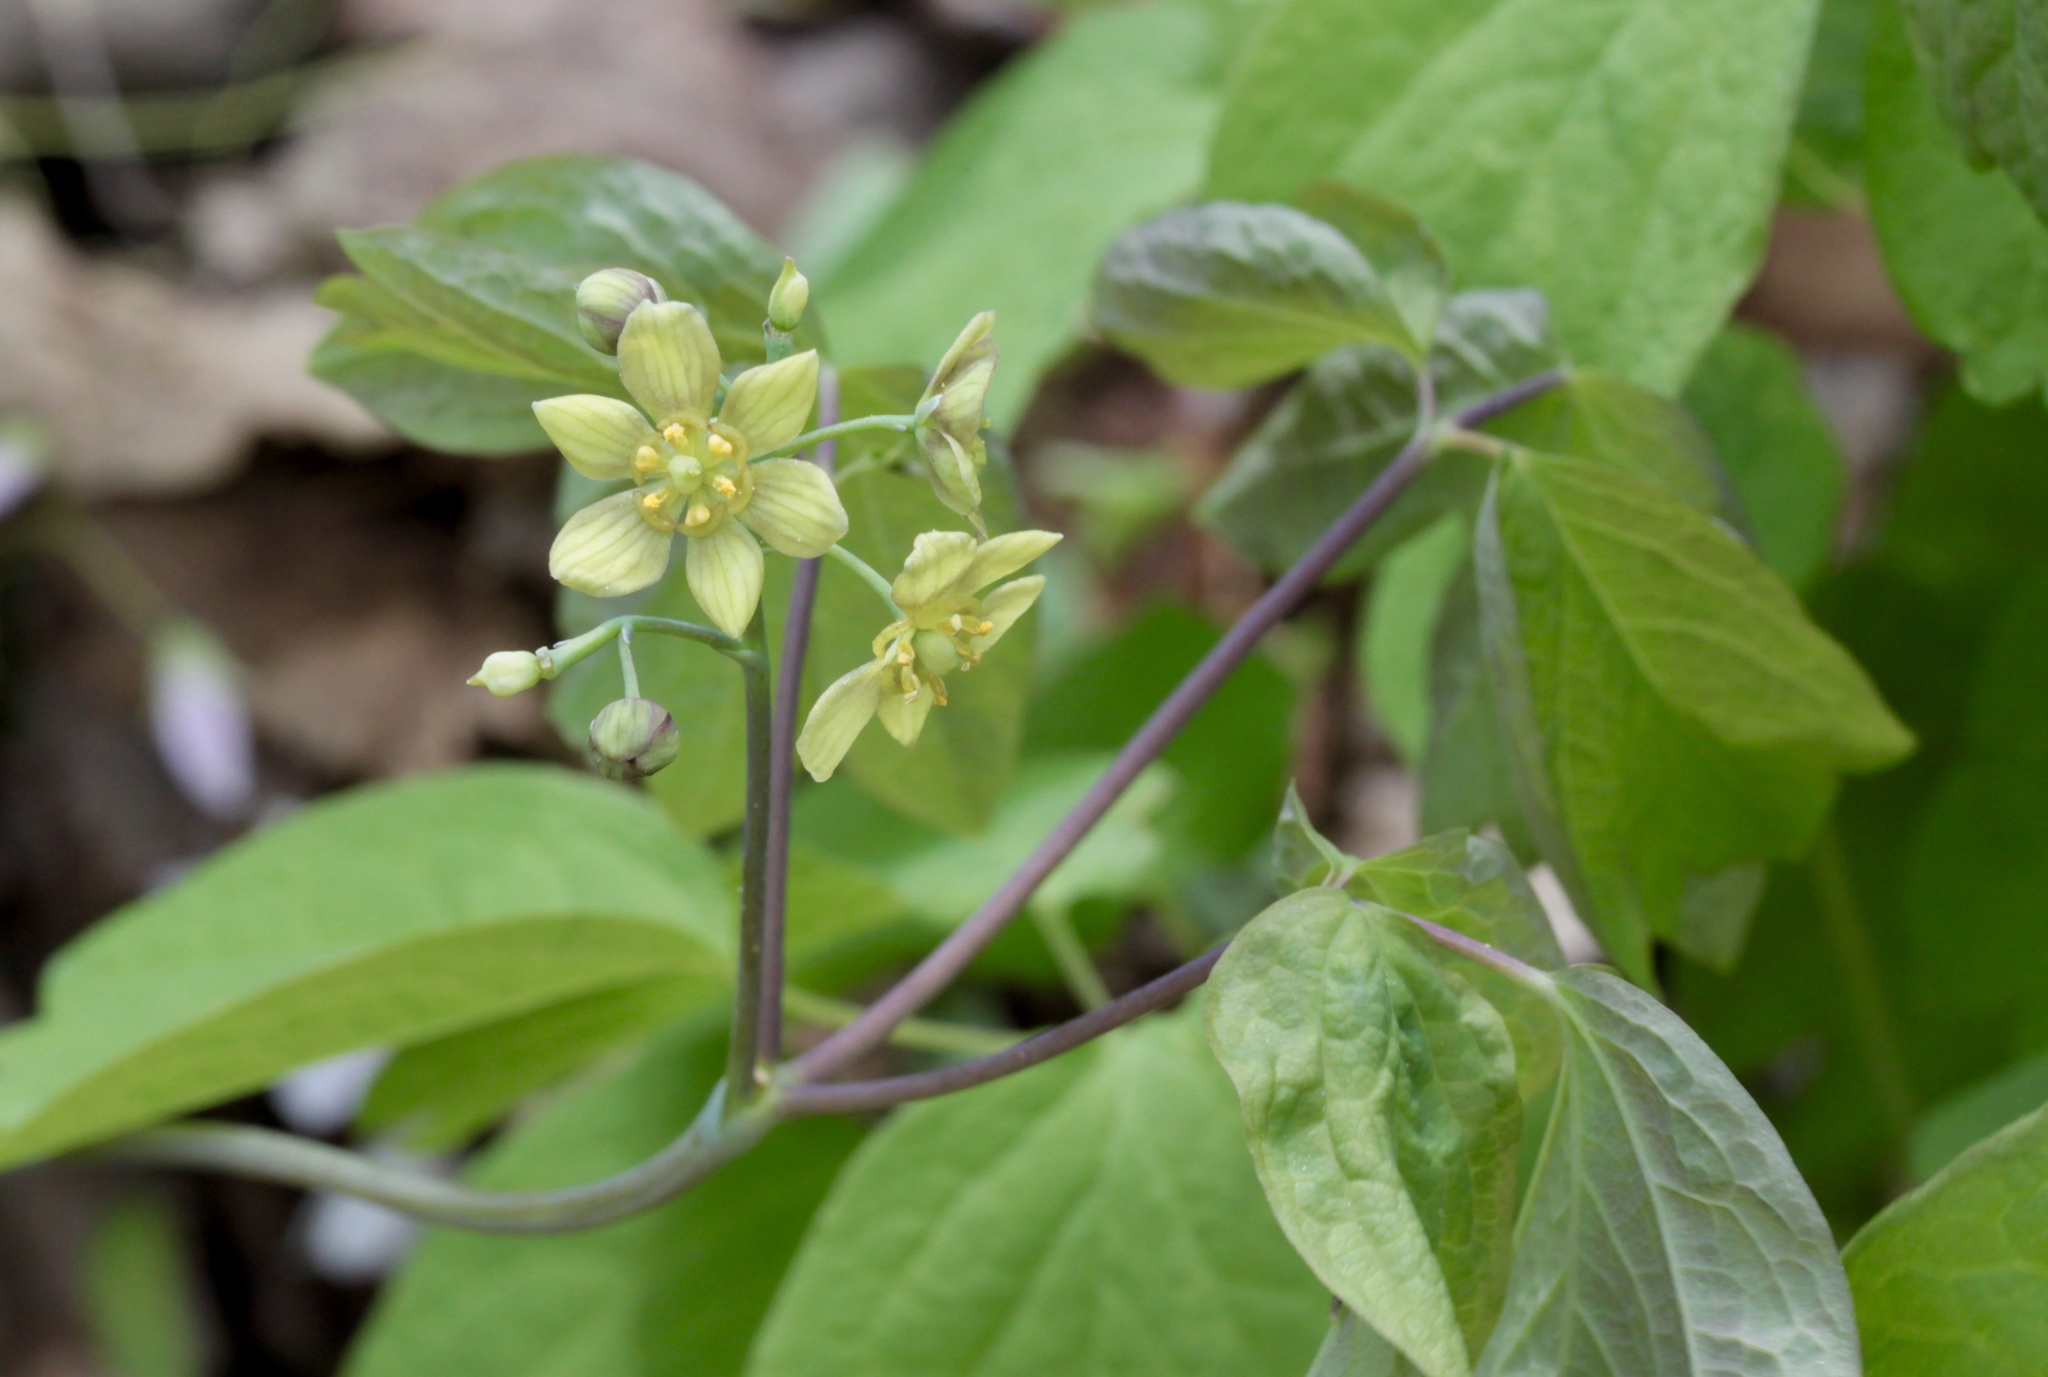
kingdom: Plantae
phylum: Tracheophyta
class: Magnoliopsida
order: Ranunculales
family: Berberidaceae
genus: Caulophyllum
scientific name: Caulophyllum thalictroides
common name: Blue cohosh
